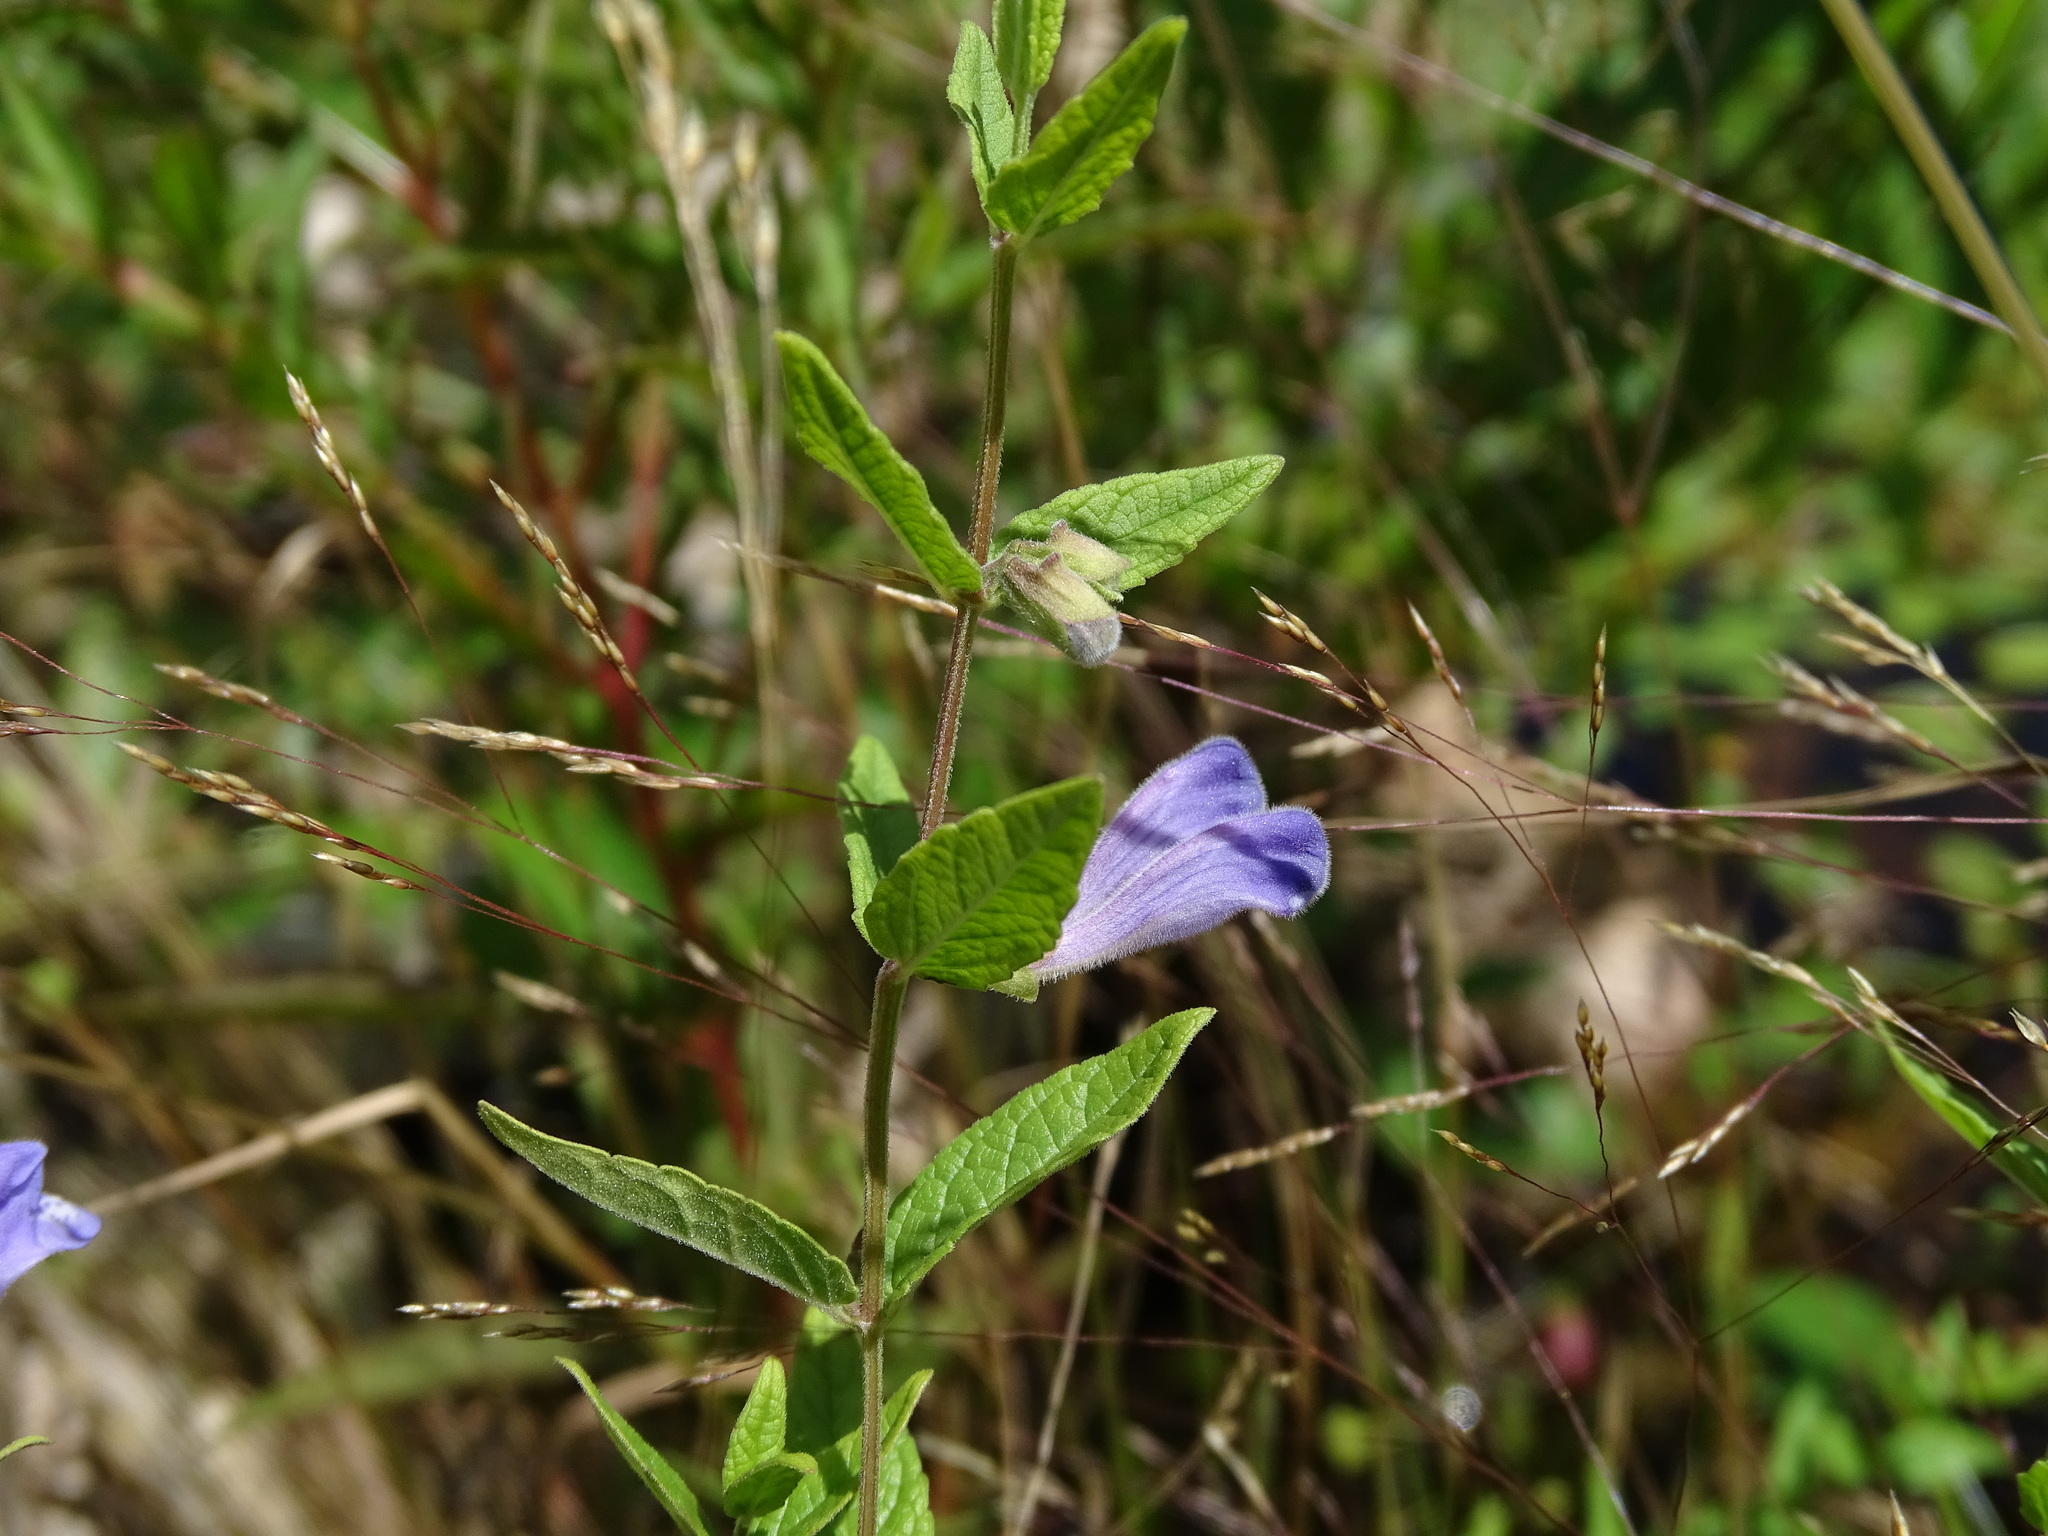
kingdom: Plantae
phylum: Tracheophyta
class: Magnoliopsida
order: Lamiales
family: Lamiaceae
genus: Scutellaria
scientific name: Scutellaria galericulata
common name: Skullcap
